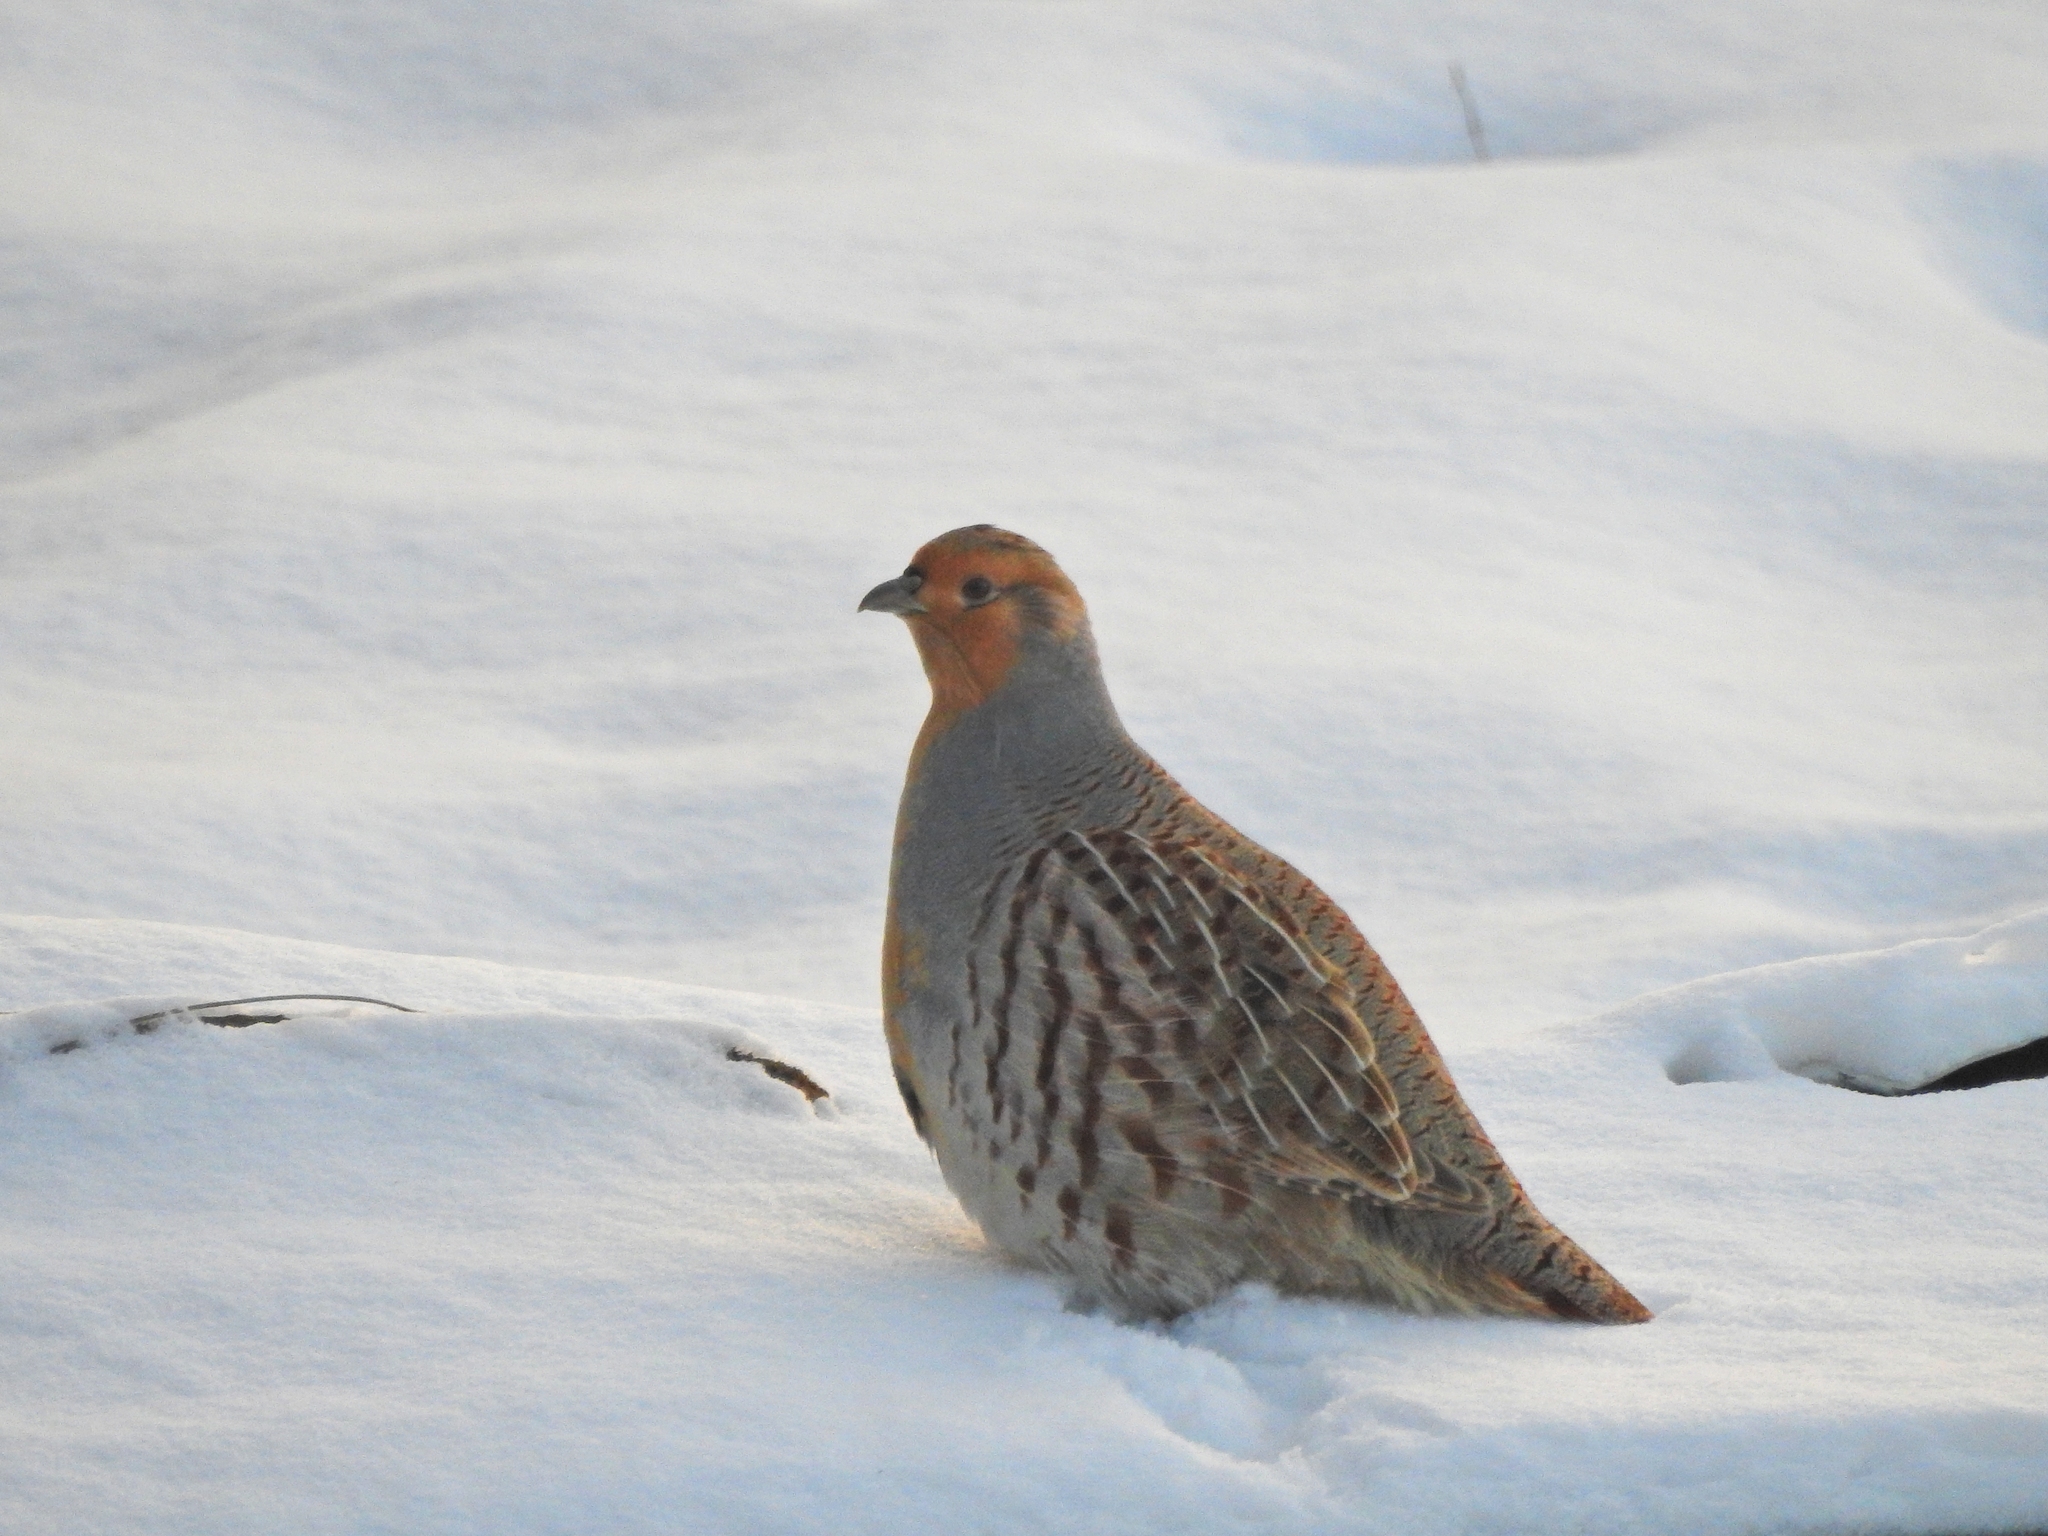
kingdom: Animalia
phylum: Chordata
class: Aves
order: Galliformes
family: Phasianidae
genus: Perdix
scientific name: Perdix dauurica
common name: Daurian partridge
